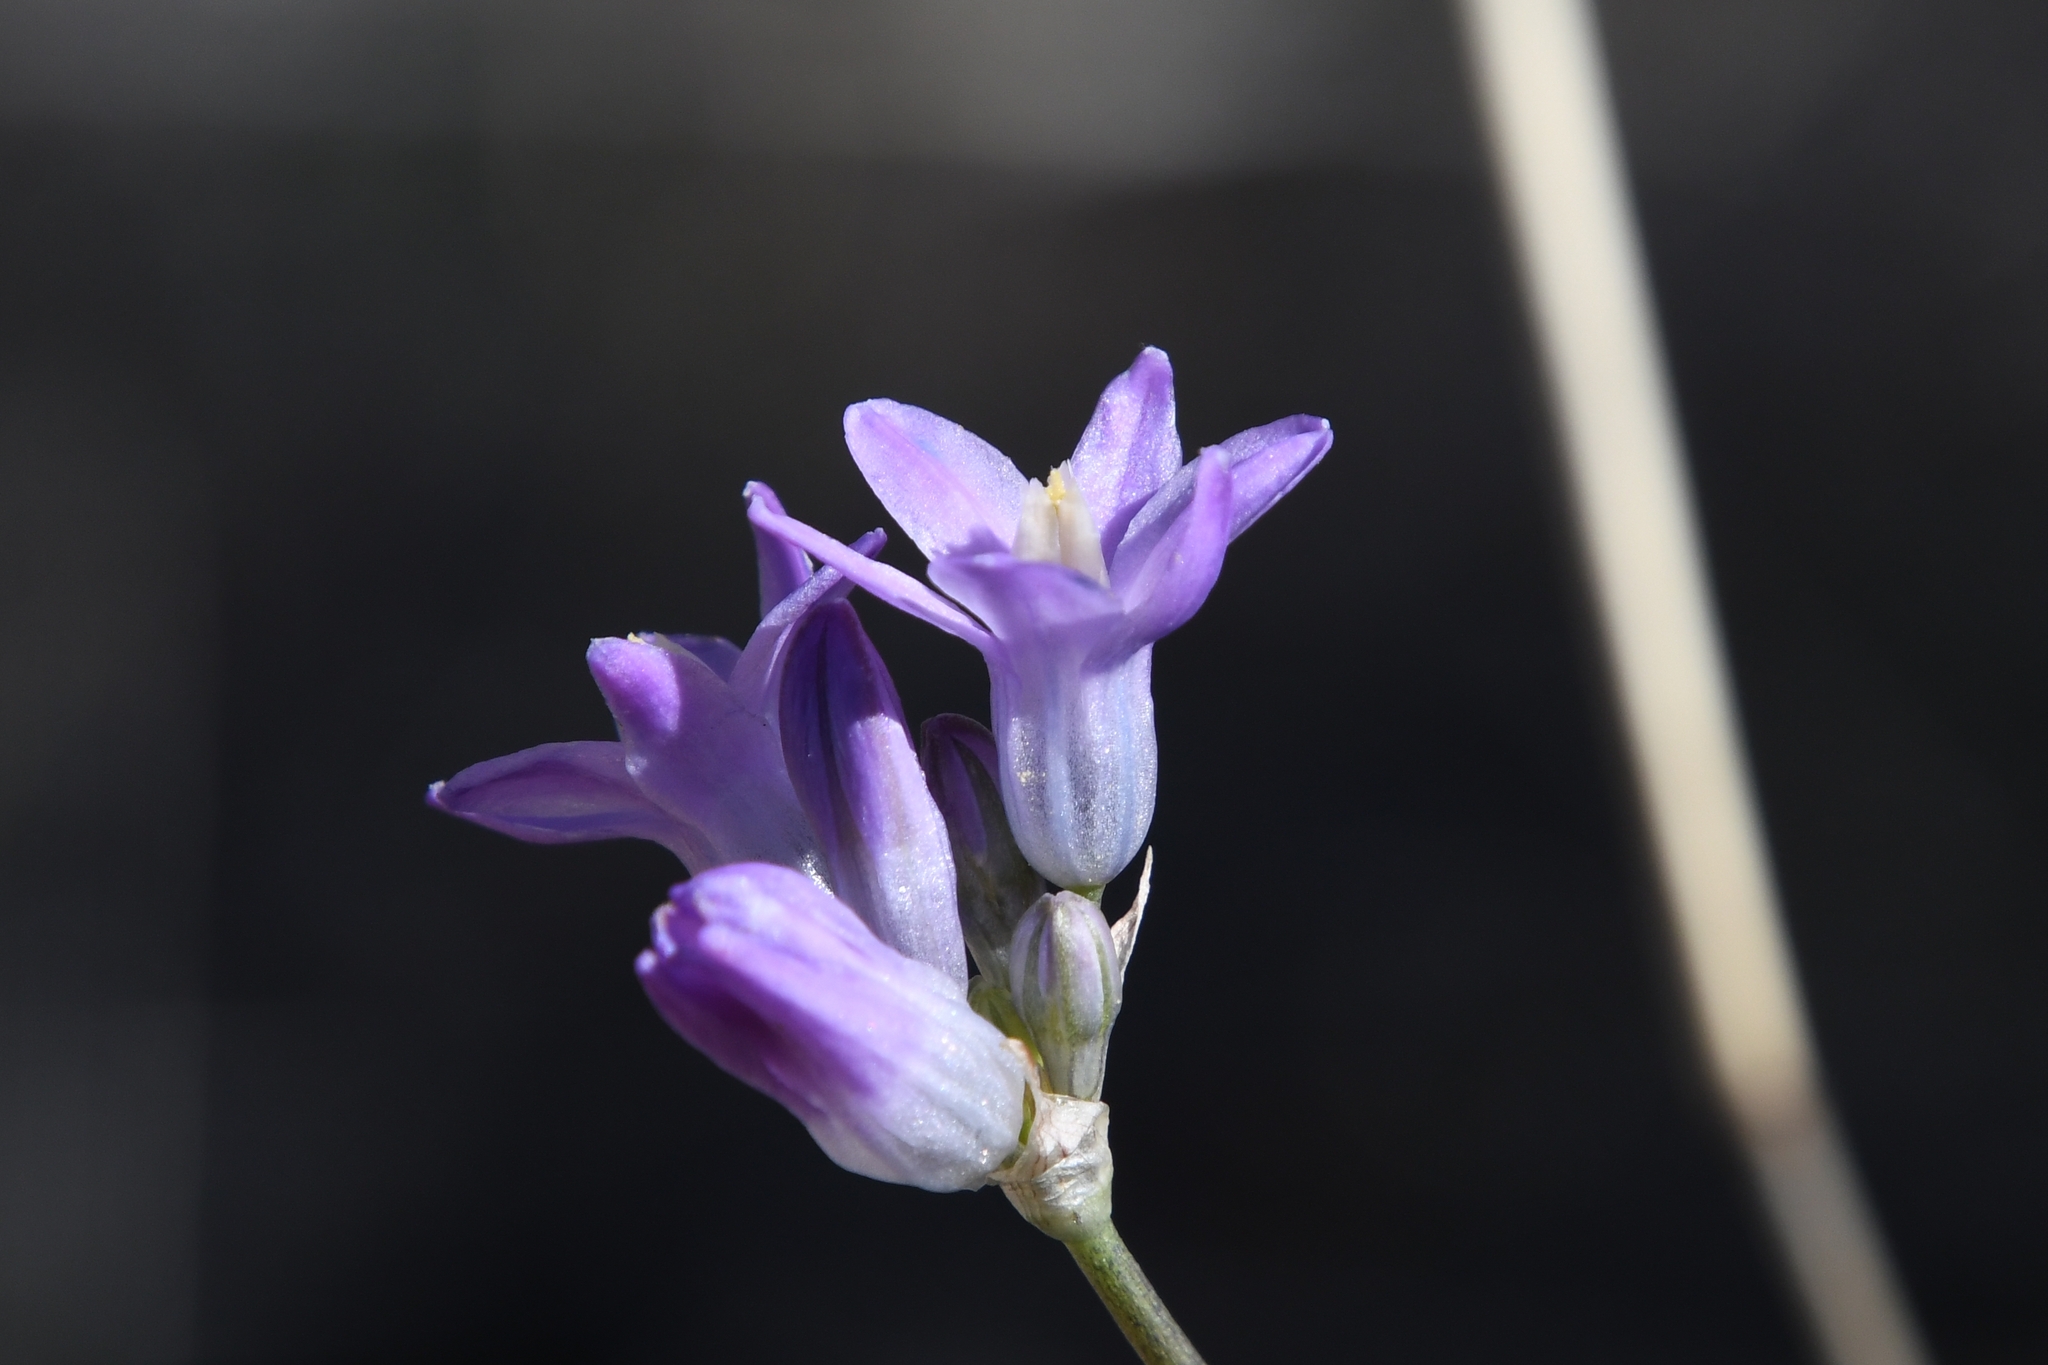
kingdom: Plantae
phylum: Tracheophyta
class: Liliopsida
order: Asparagales
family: Asparagaceae
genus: Dipterostemon
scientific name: Dipterostemon capitatus
